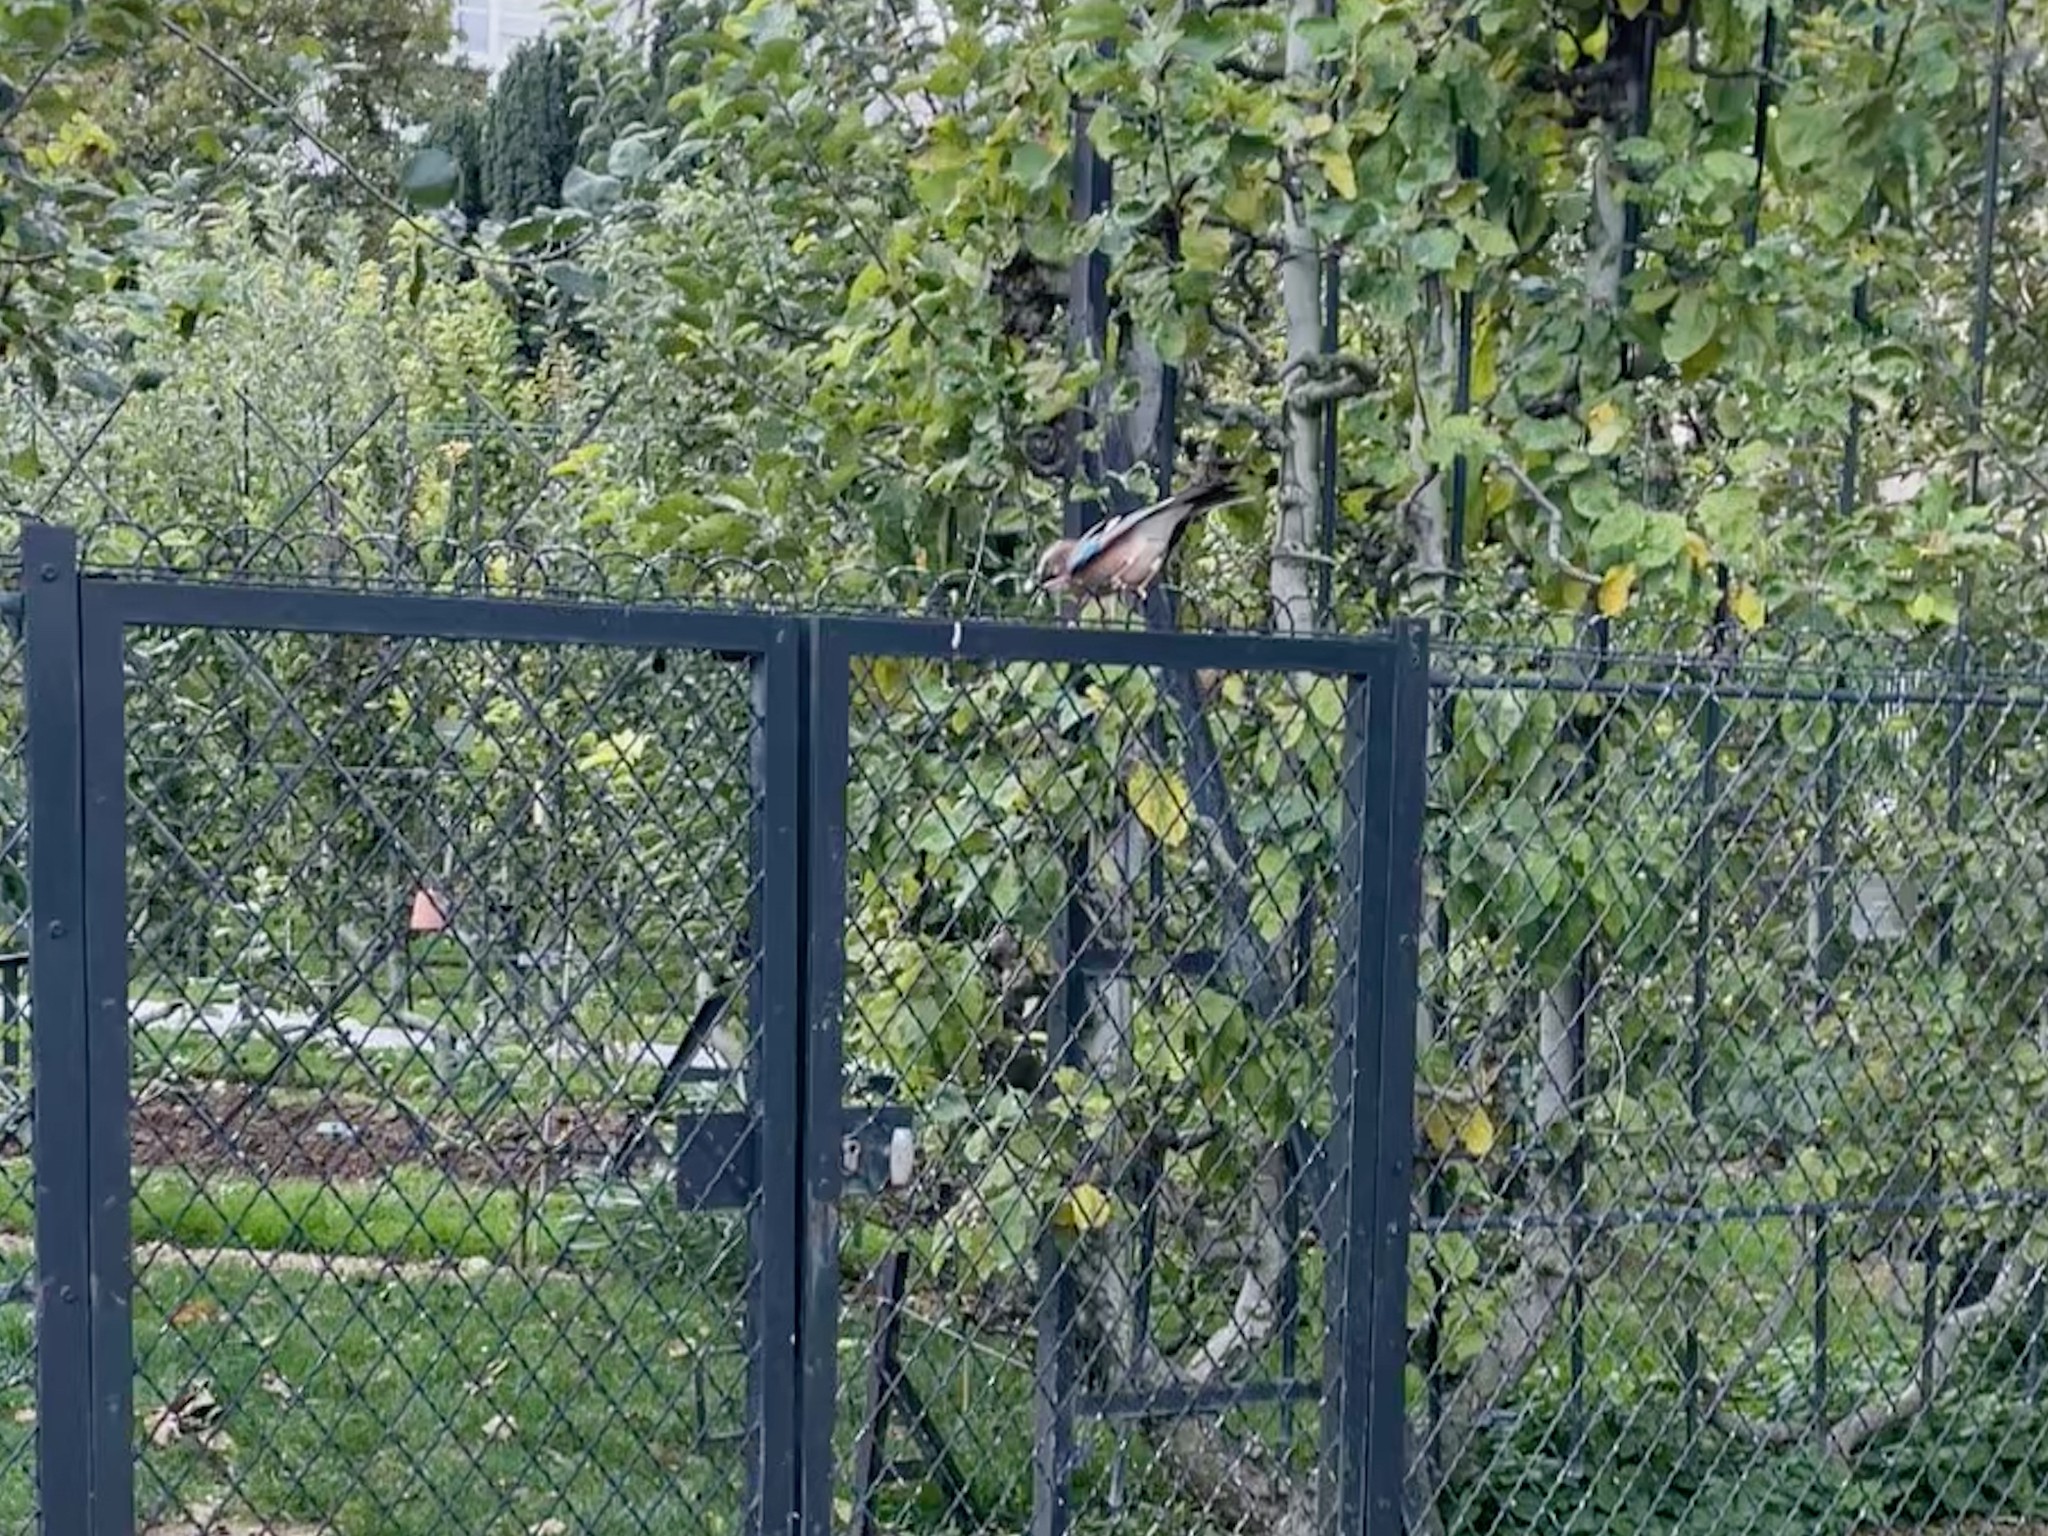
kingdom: Animalia
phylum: Chordata
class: Aves
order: Passeriformes
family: Corvidae
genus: Garrulus
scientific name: Garrulus glandarius
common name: Eurasian jay
